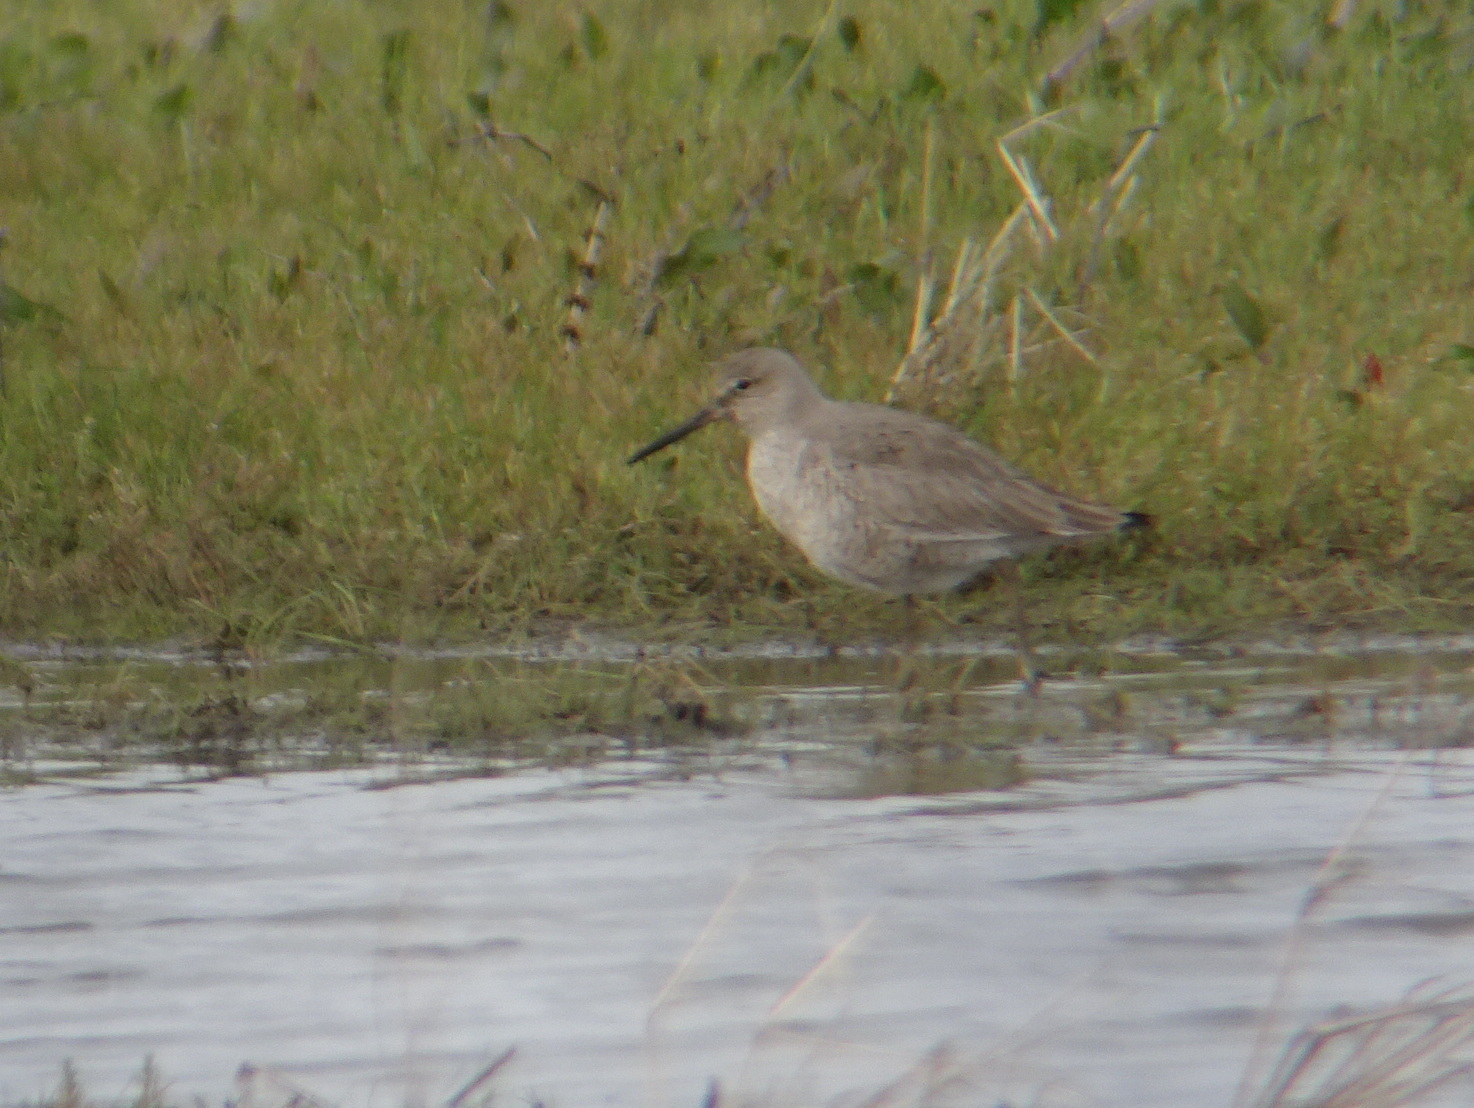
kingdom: Animalia
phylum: Chordata
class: Aves
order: Charadriiformes
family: Scolopacidae
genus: Tringa
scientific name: Tringa semipalmata
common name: Willet
